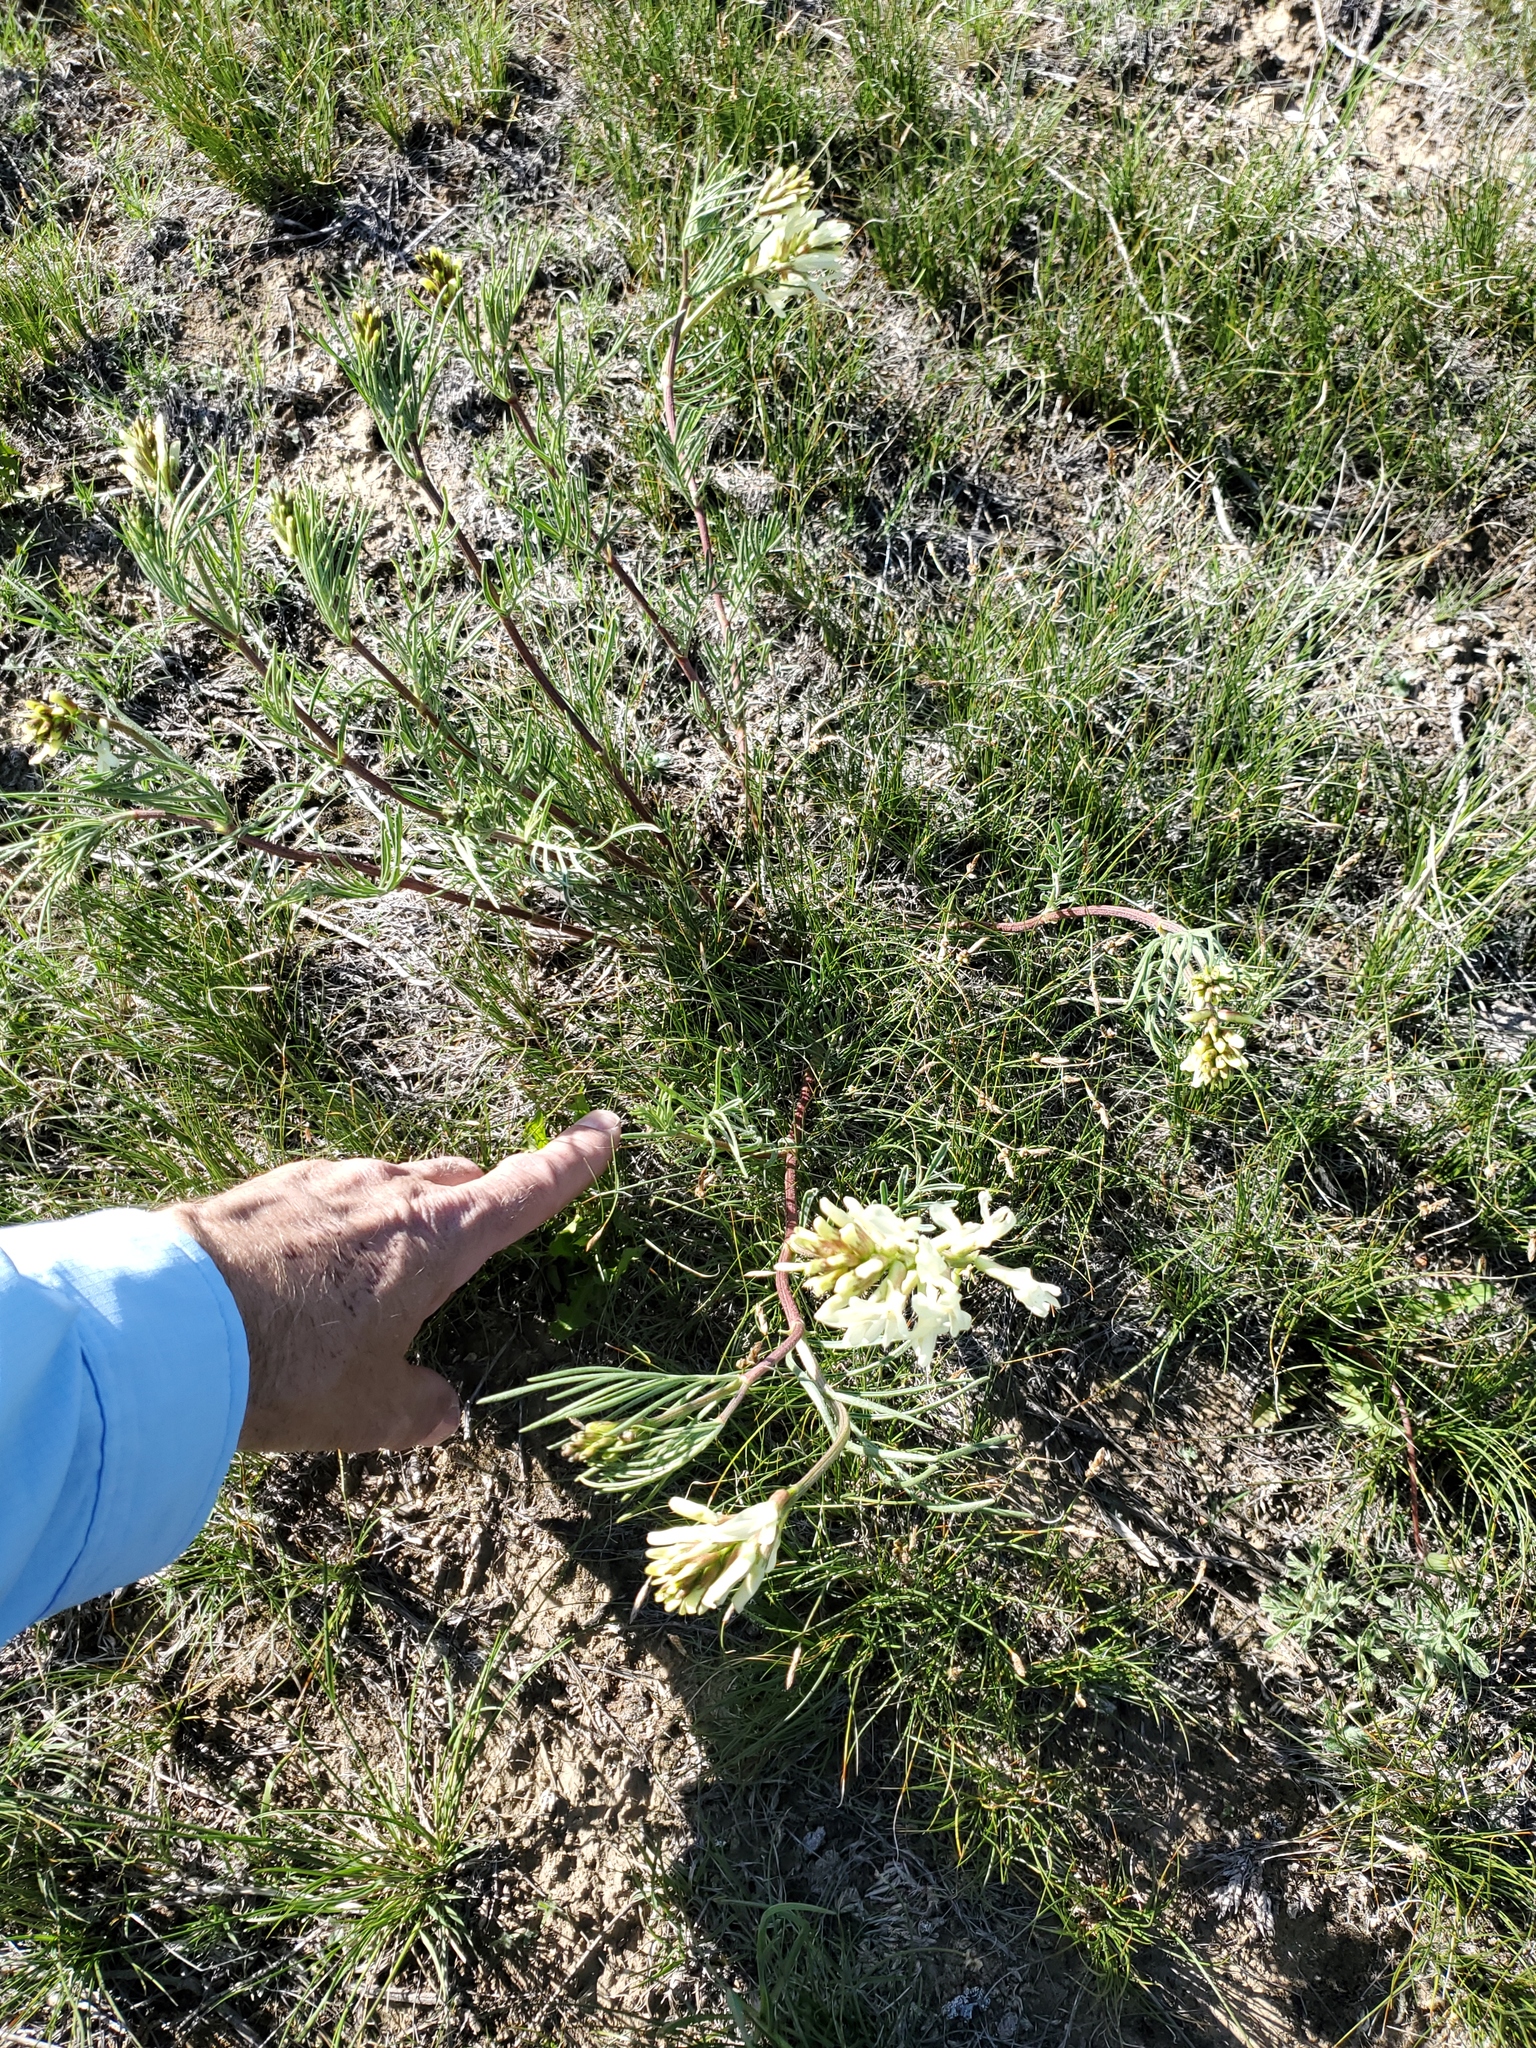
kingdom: Plantae
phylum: Tracheophyta
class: Magnoliopsida
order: Fabales
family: Fabaceae
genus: Astragalus
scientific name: Astragalus pectinatus
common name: Tine-leaf milk-vetch
